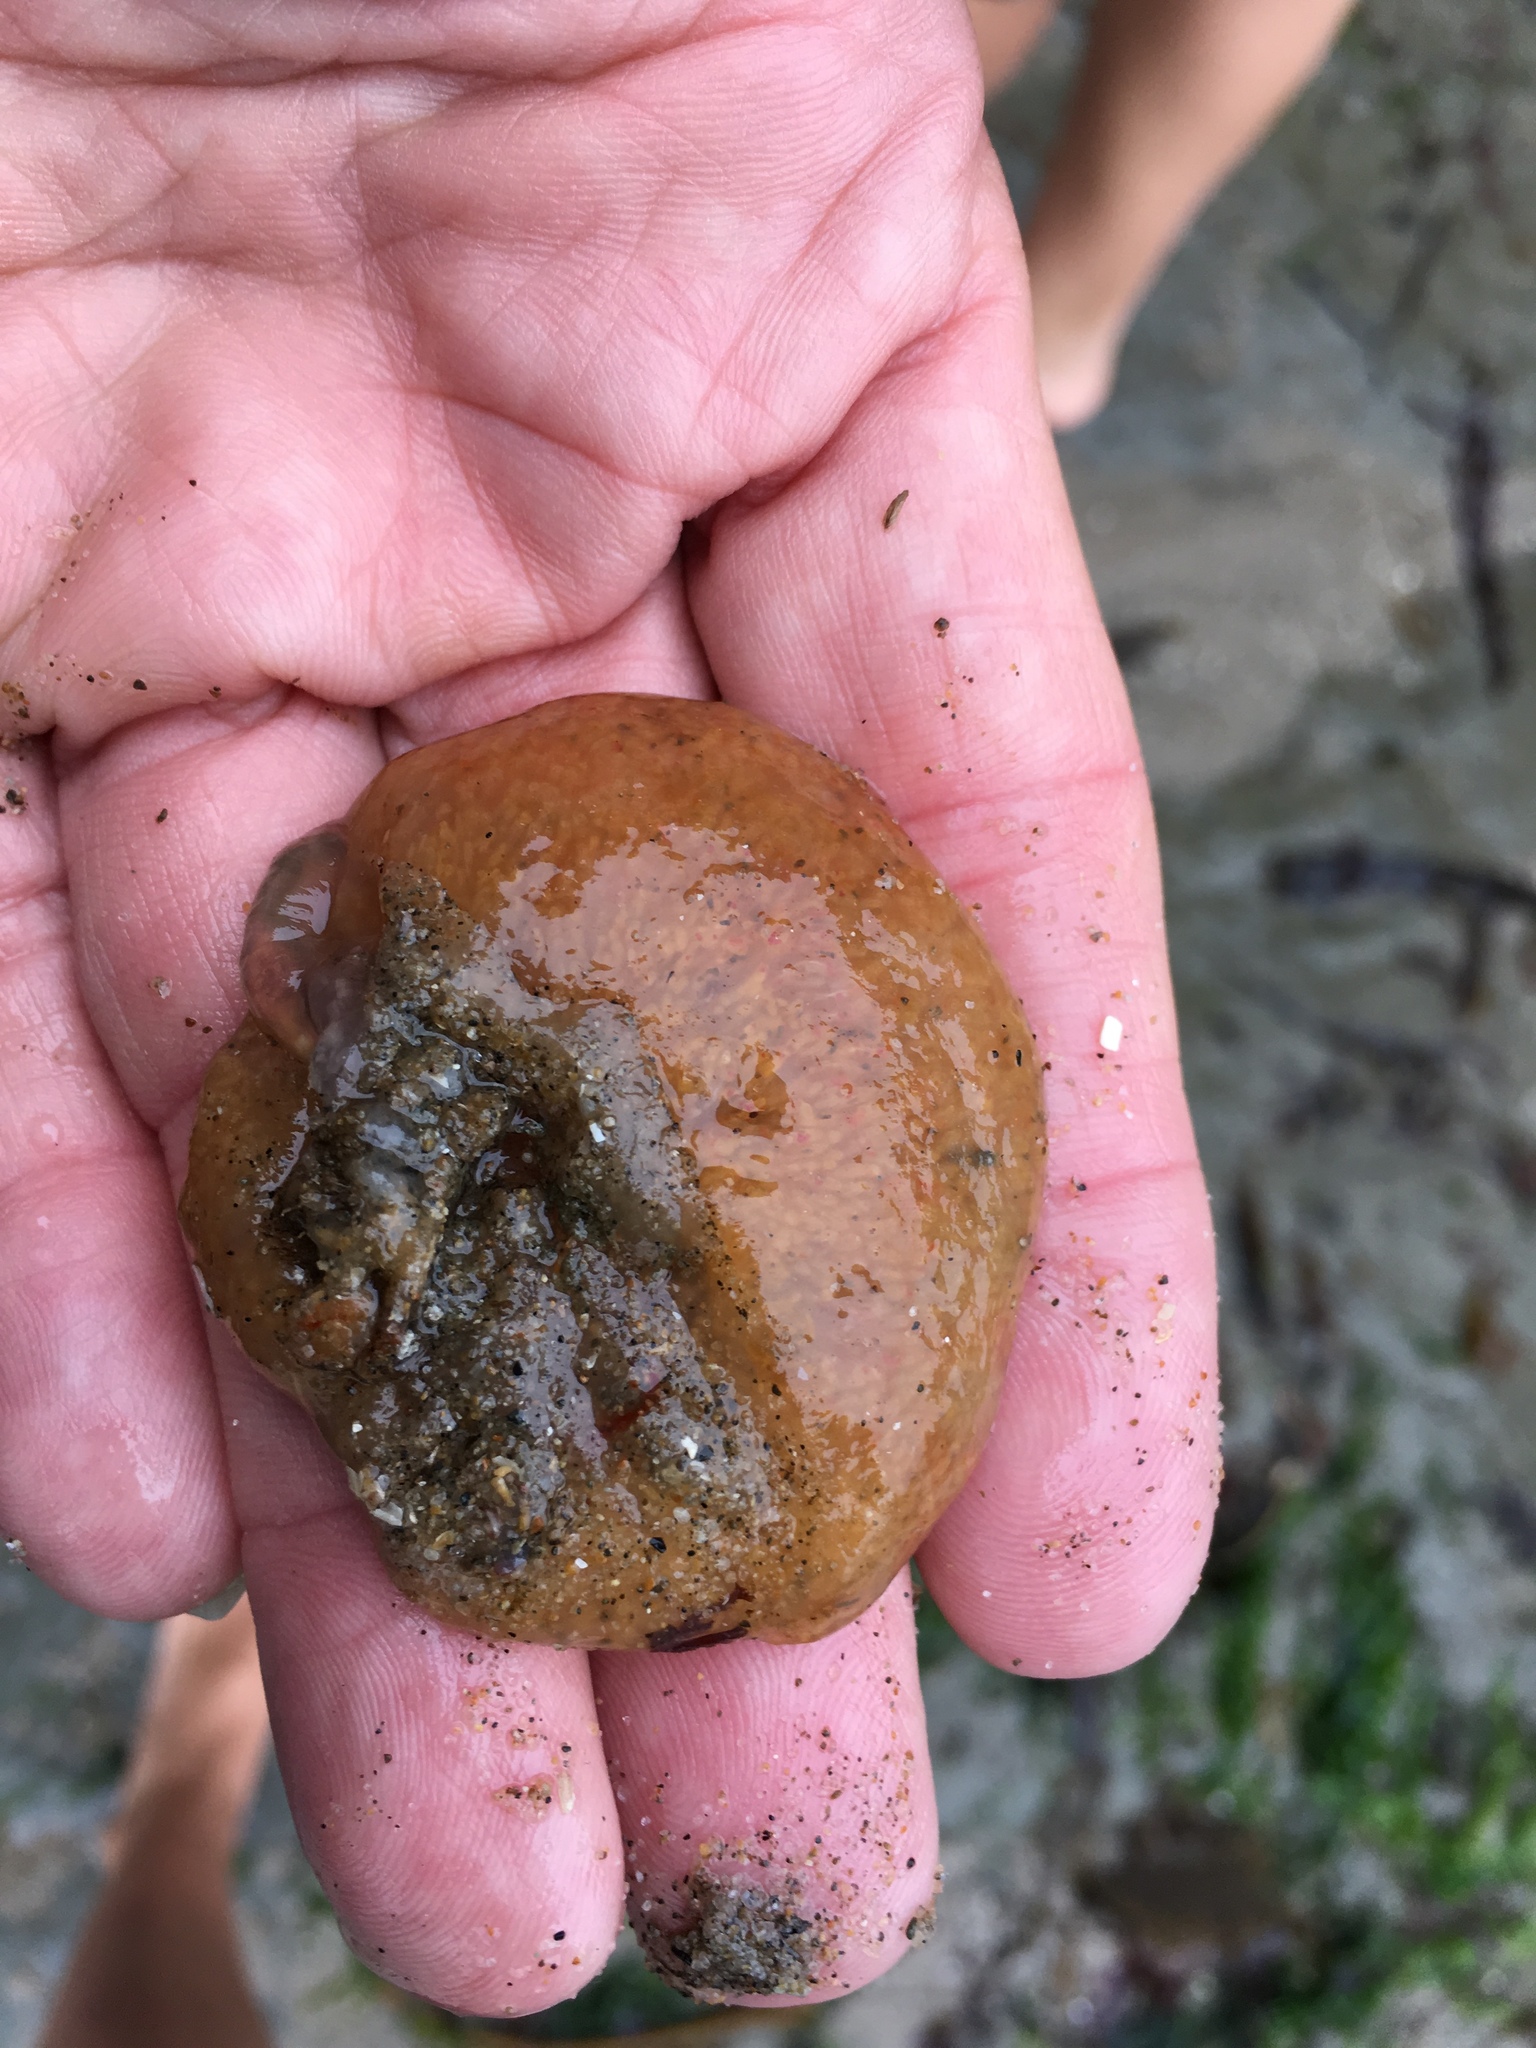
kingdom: Animalia
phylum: Chordata
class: Ascidiacea
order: Aplousobranchia
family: Polyclinidae
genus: Aplidium
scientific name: Aplidium californicum
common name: Sea pork
